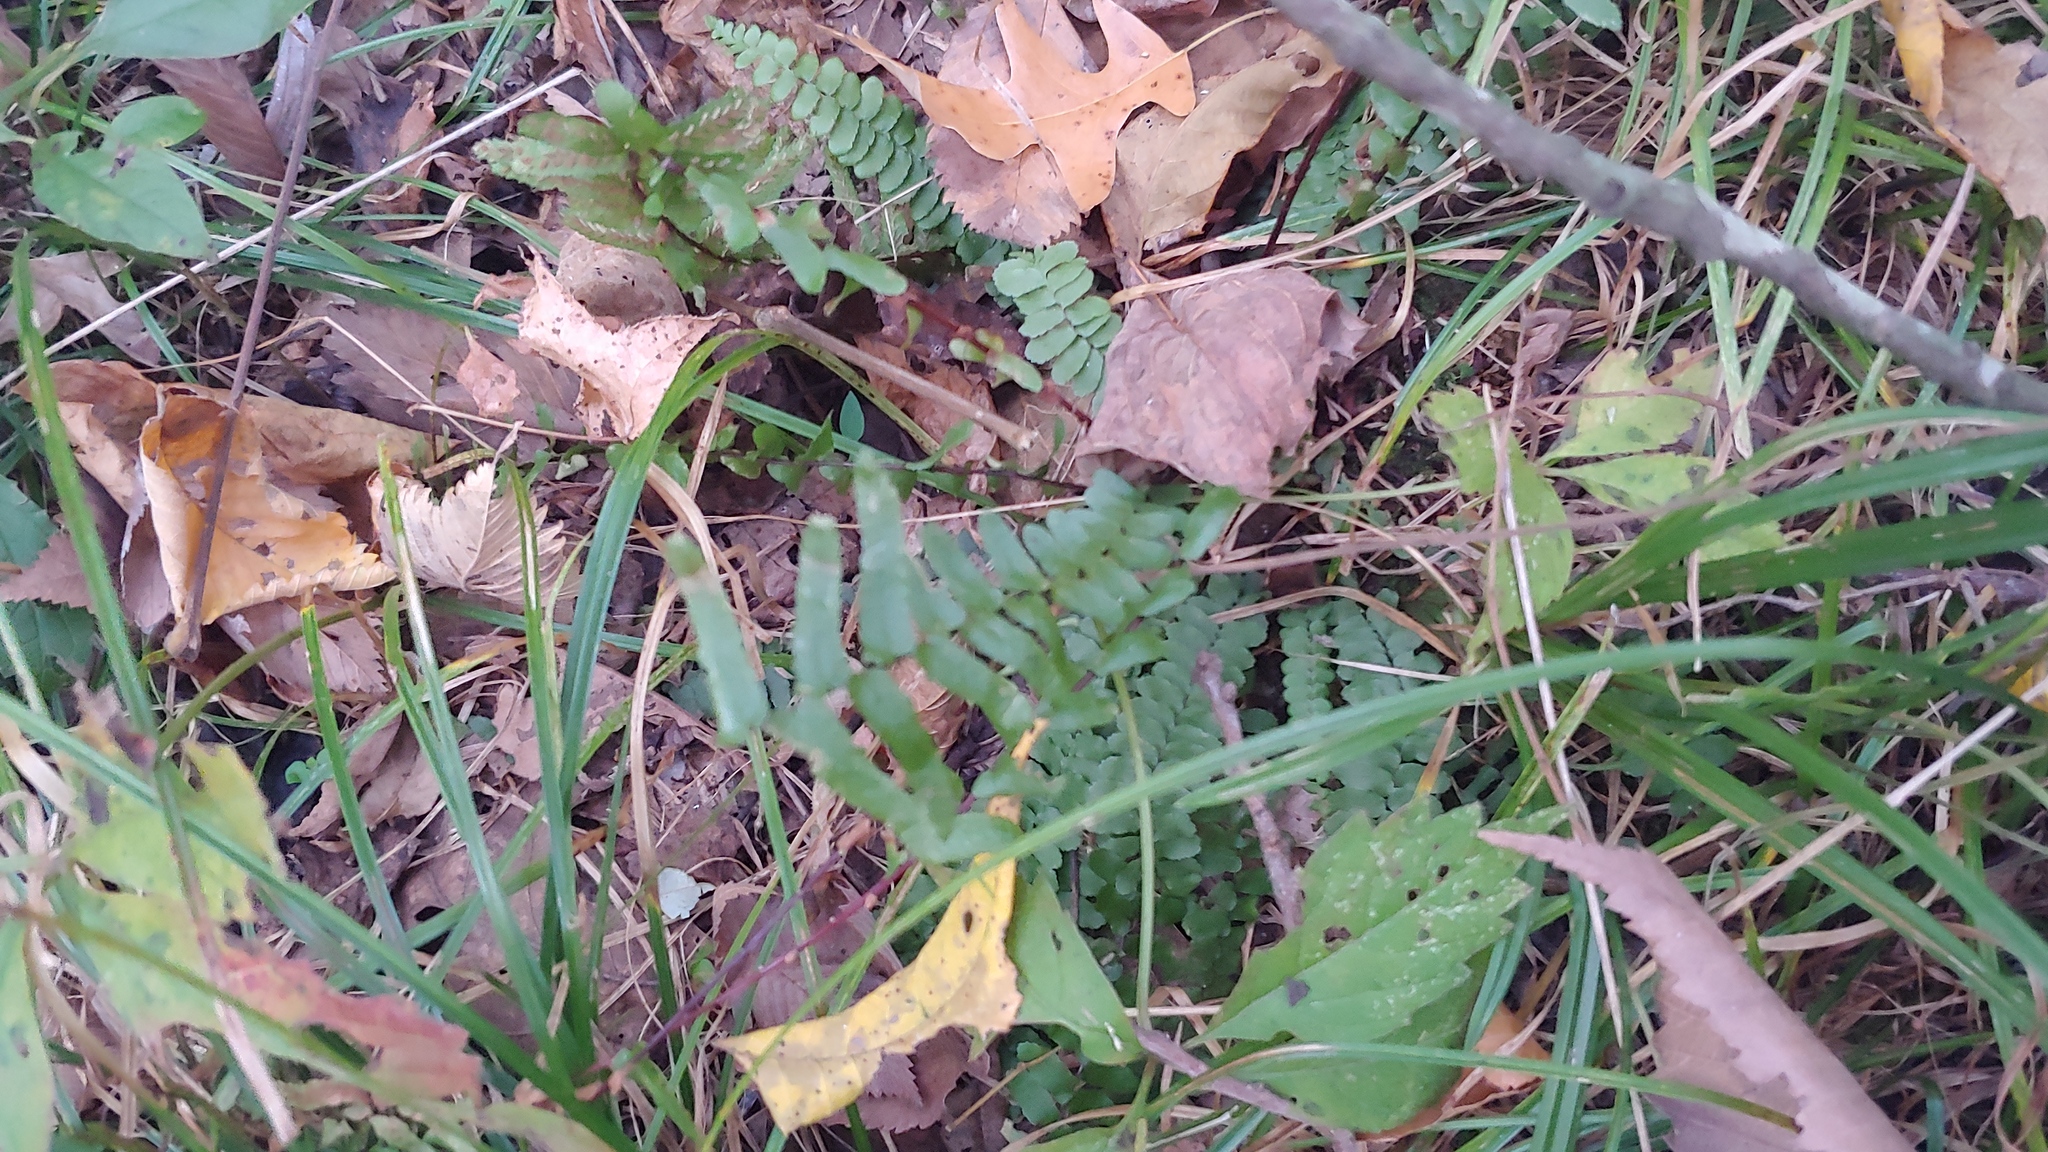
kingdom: Plantae
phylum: Tracheophyta
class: Polypodiopsida
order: Polypodiales
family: Aspleniaceae
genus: Asplenium
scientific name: Asplenium platyneuron
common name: Ebony spleenwort
